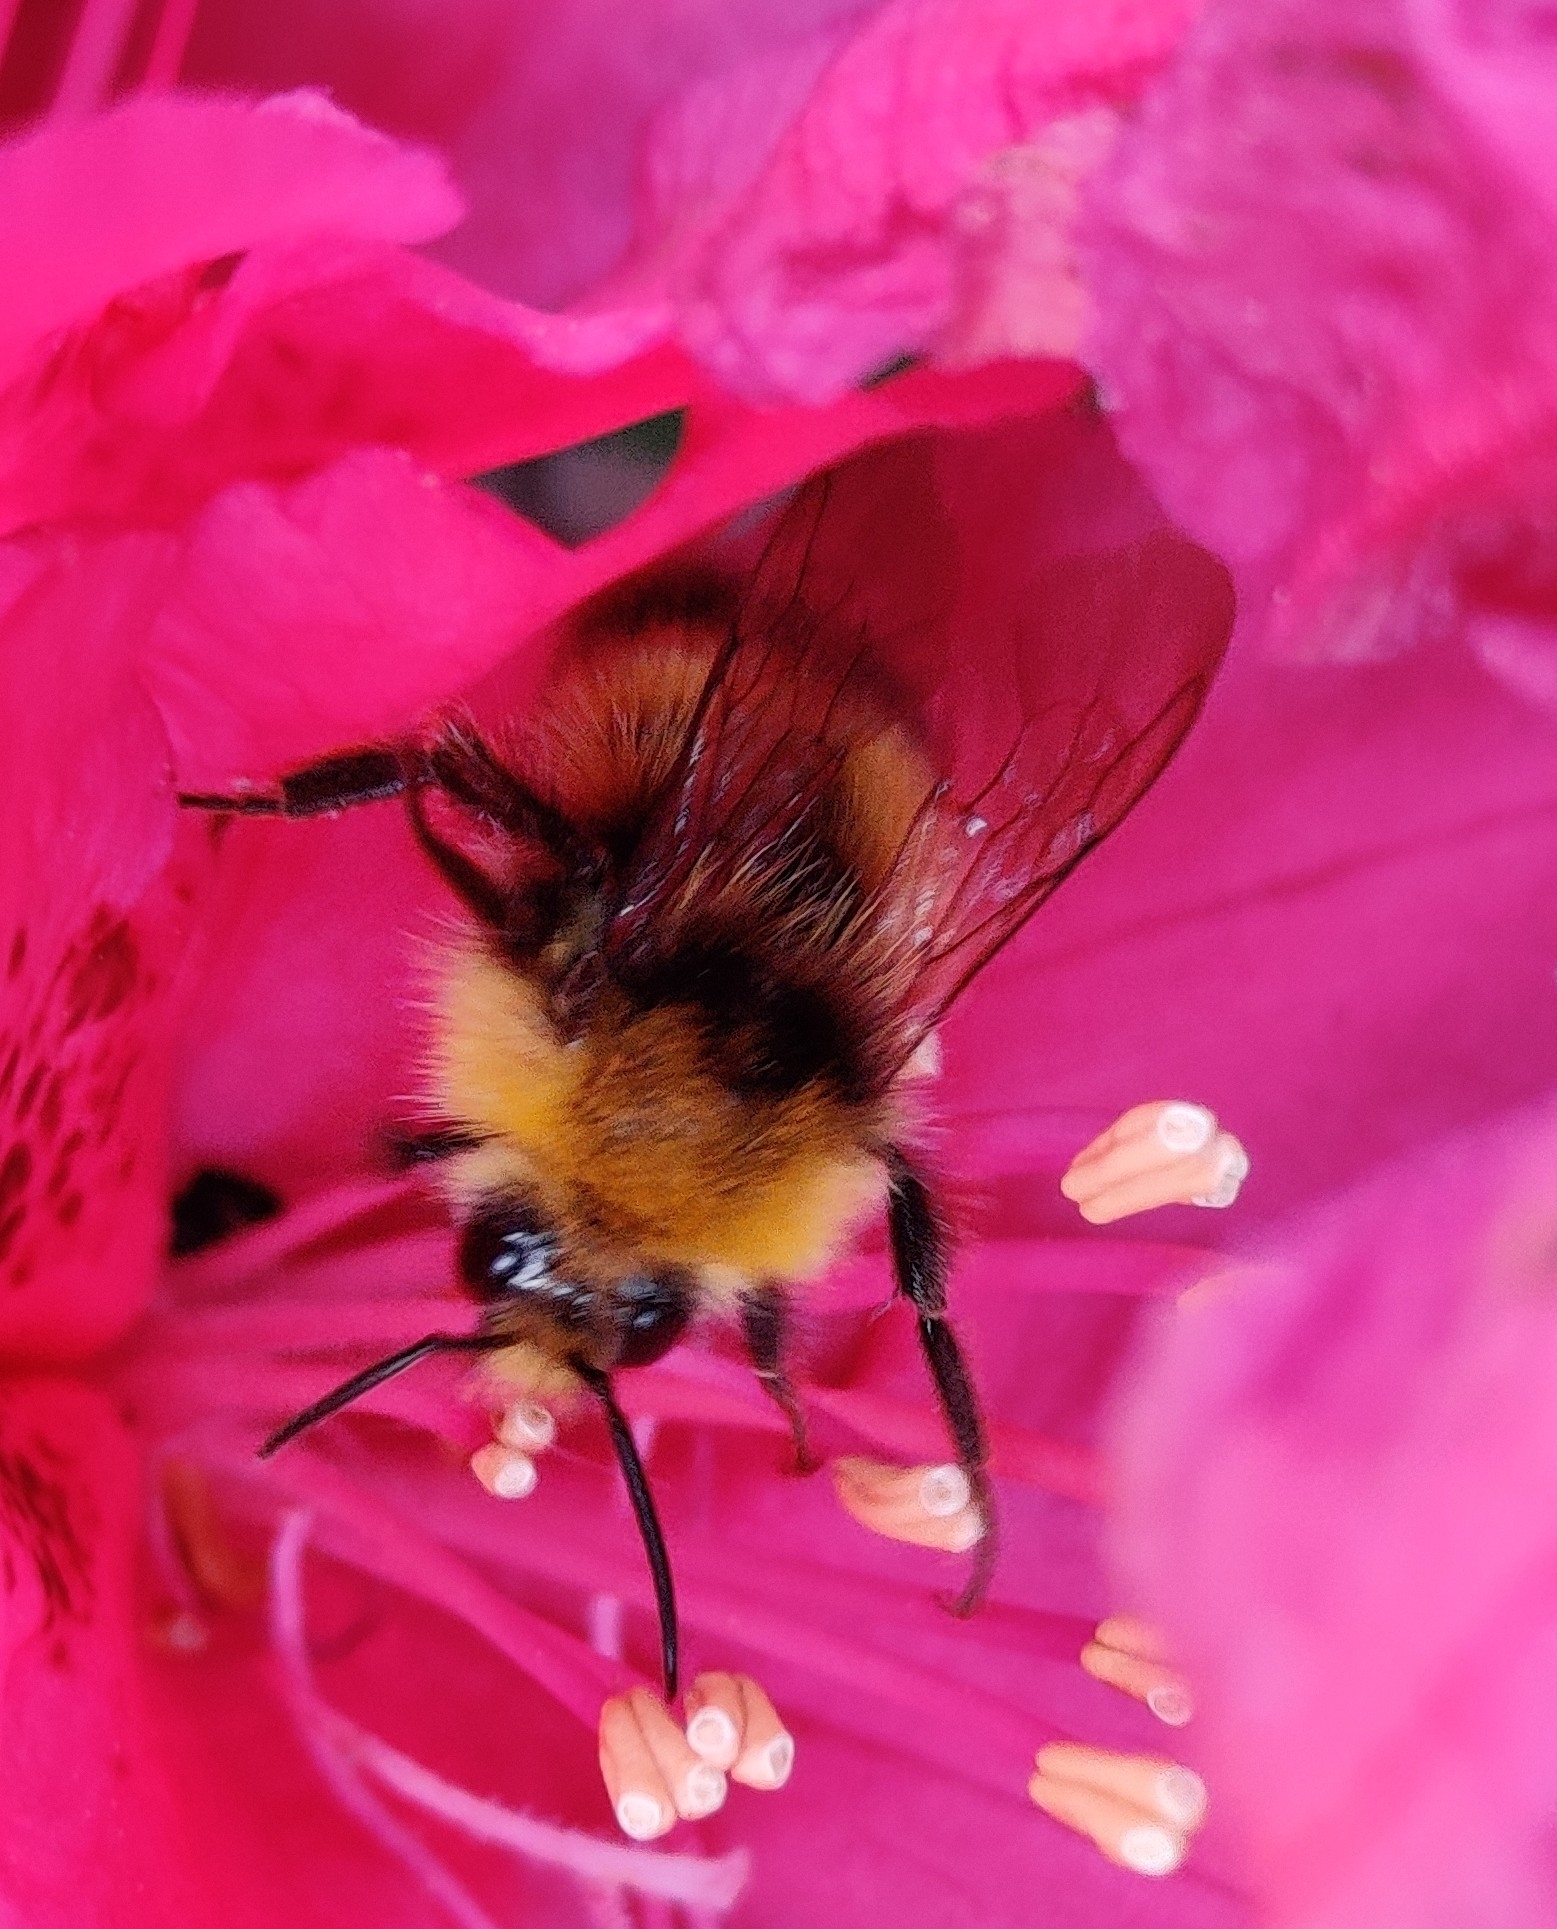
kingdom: Animalia
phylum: Arthropoda
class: Insecta
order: Hymenoptera
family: Apidae
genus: Bombus
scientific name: Bombus pratorum
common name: Early humble-bee
